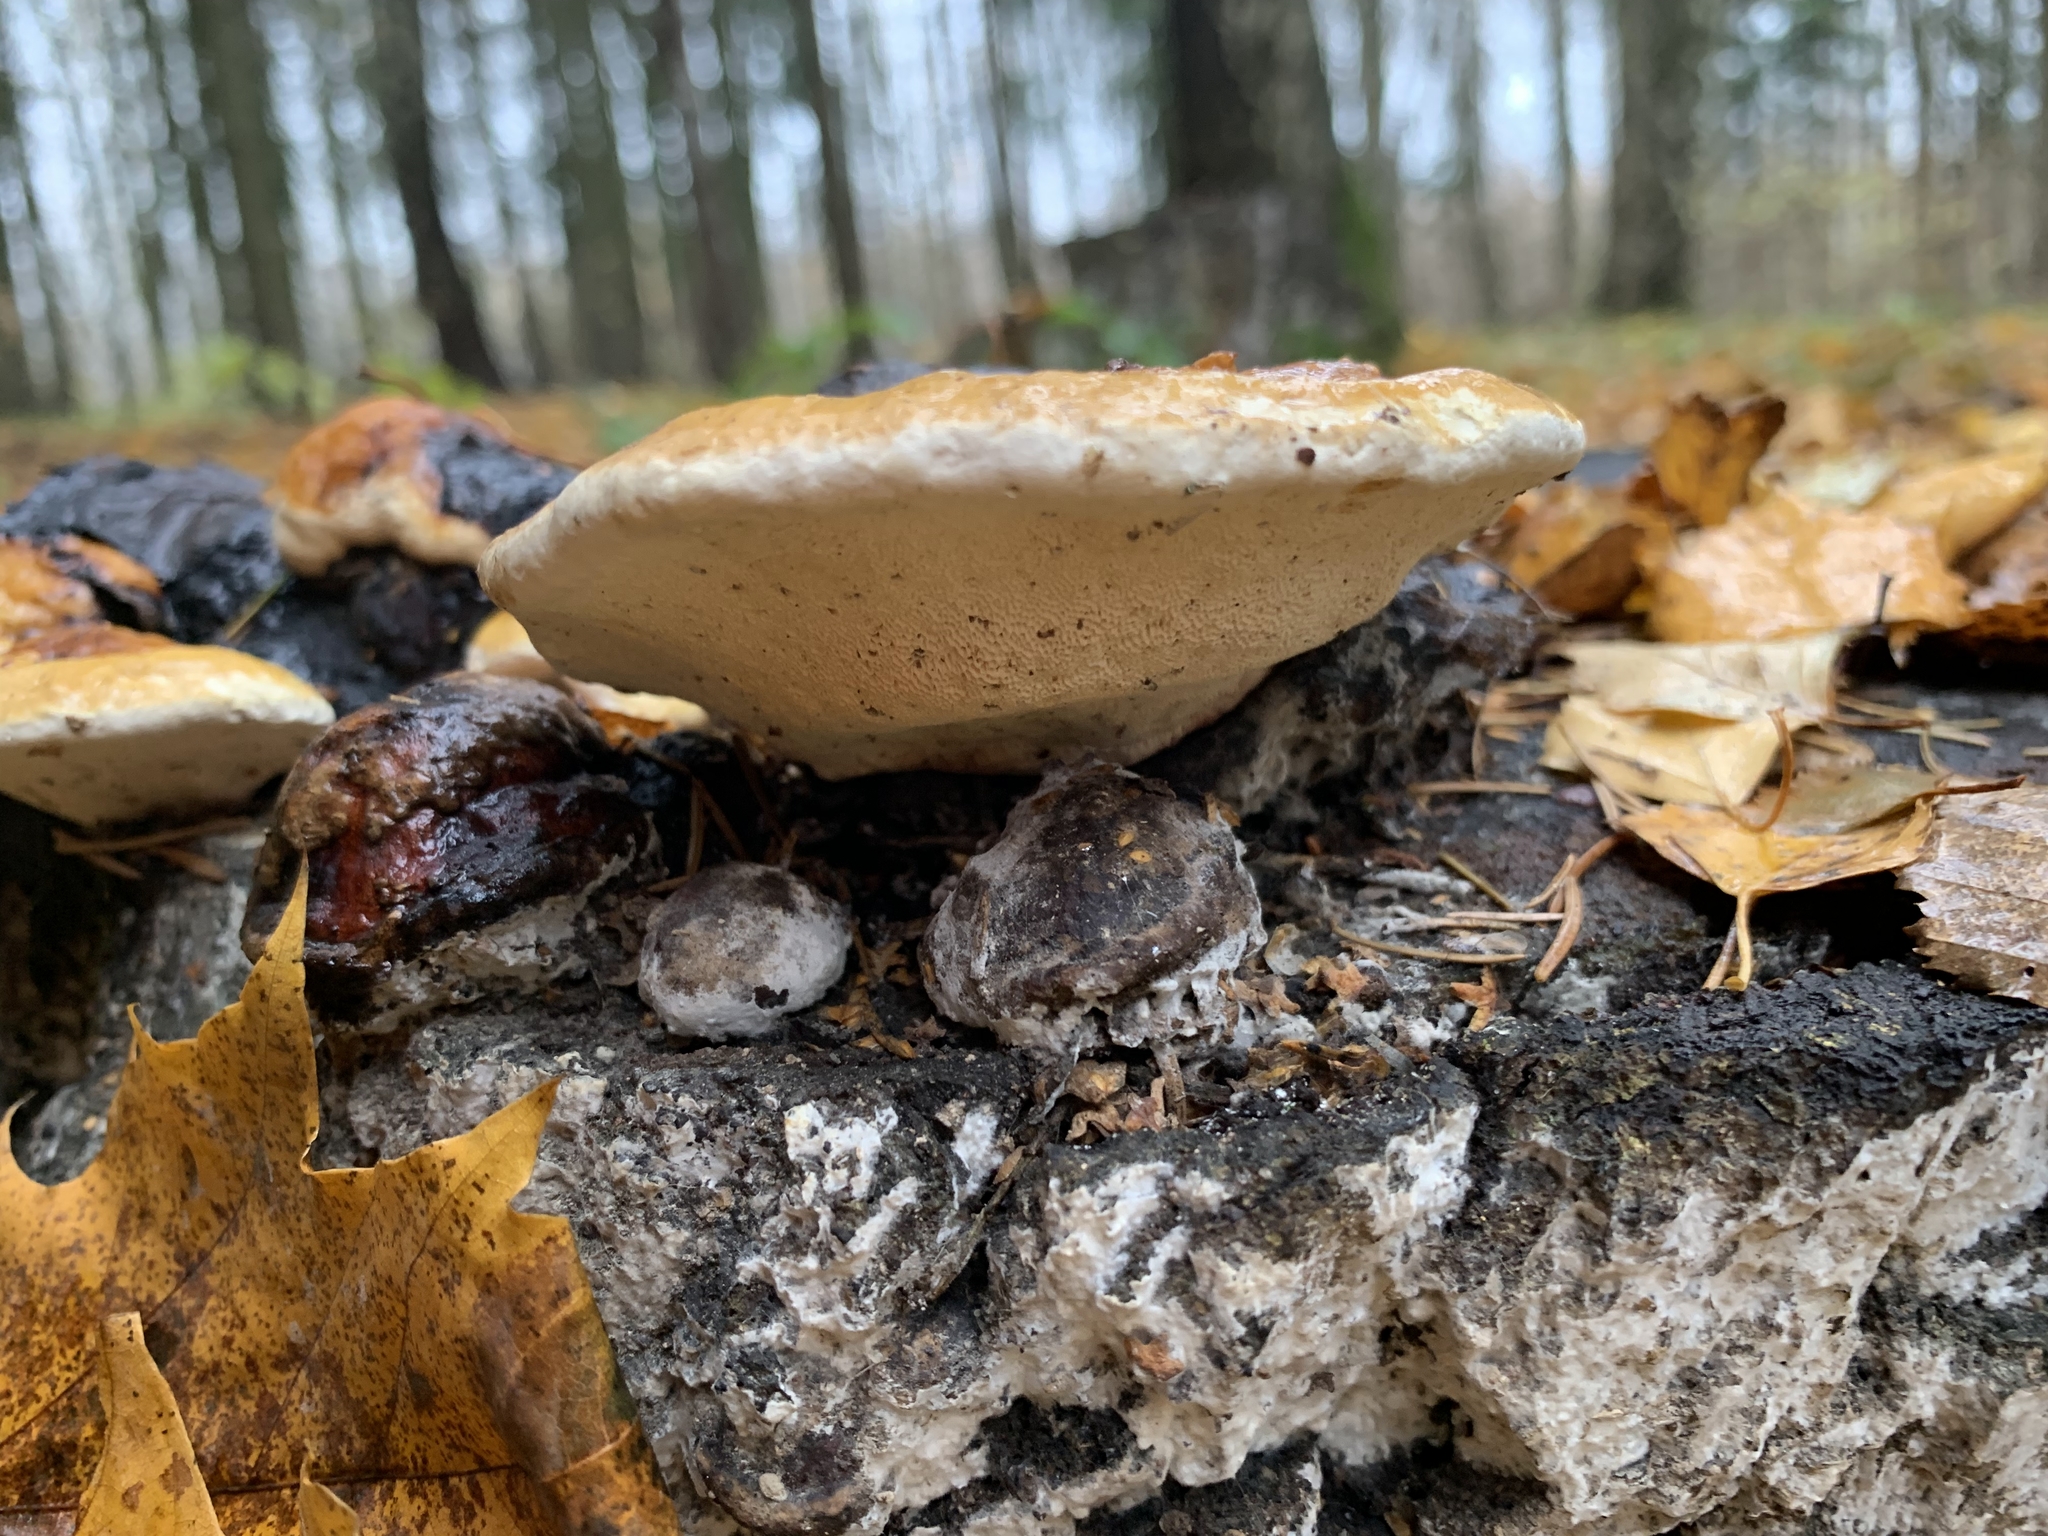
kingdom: Fungi
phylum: Basidiomycota
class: Agaricomycetes
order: Polyporales
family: Fomitopsidaceae
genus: Fomitopsis
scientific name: Fomitopsis pinicola
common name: Red-belted bracket
